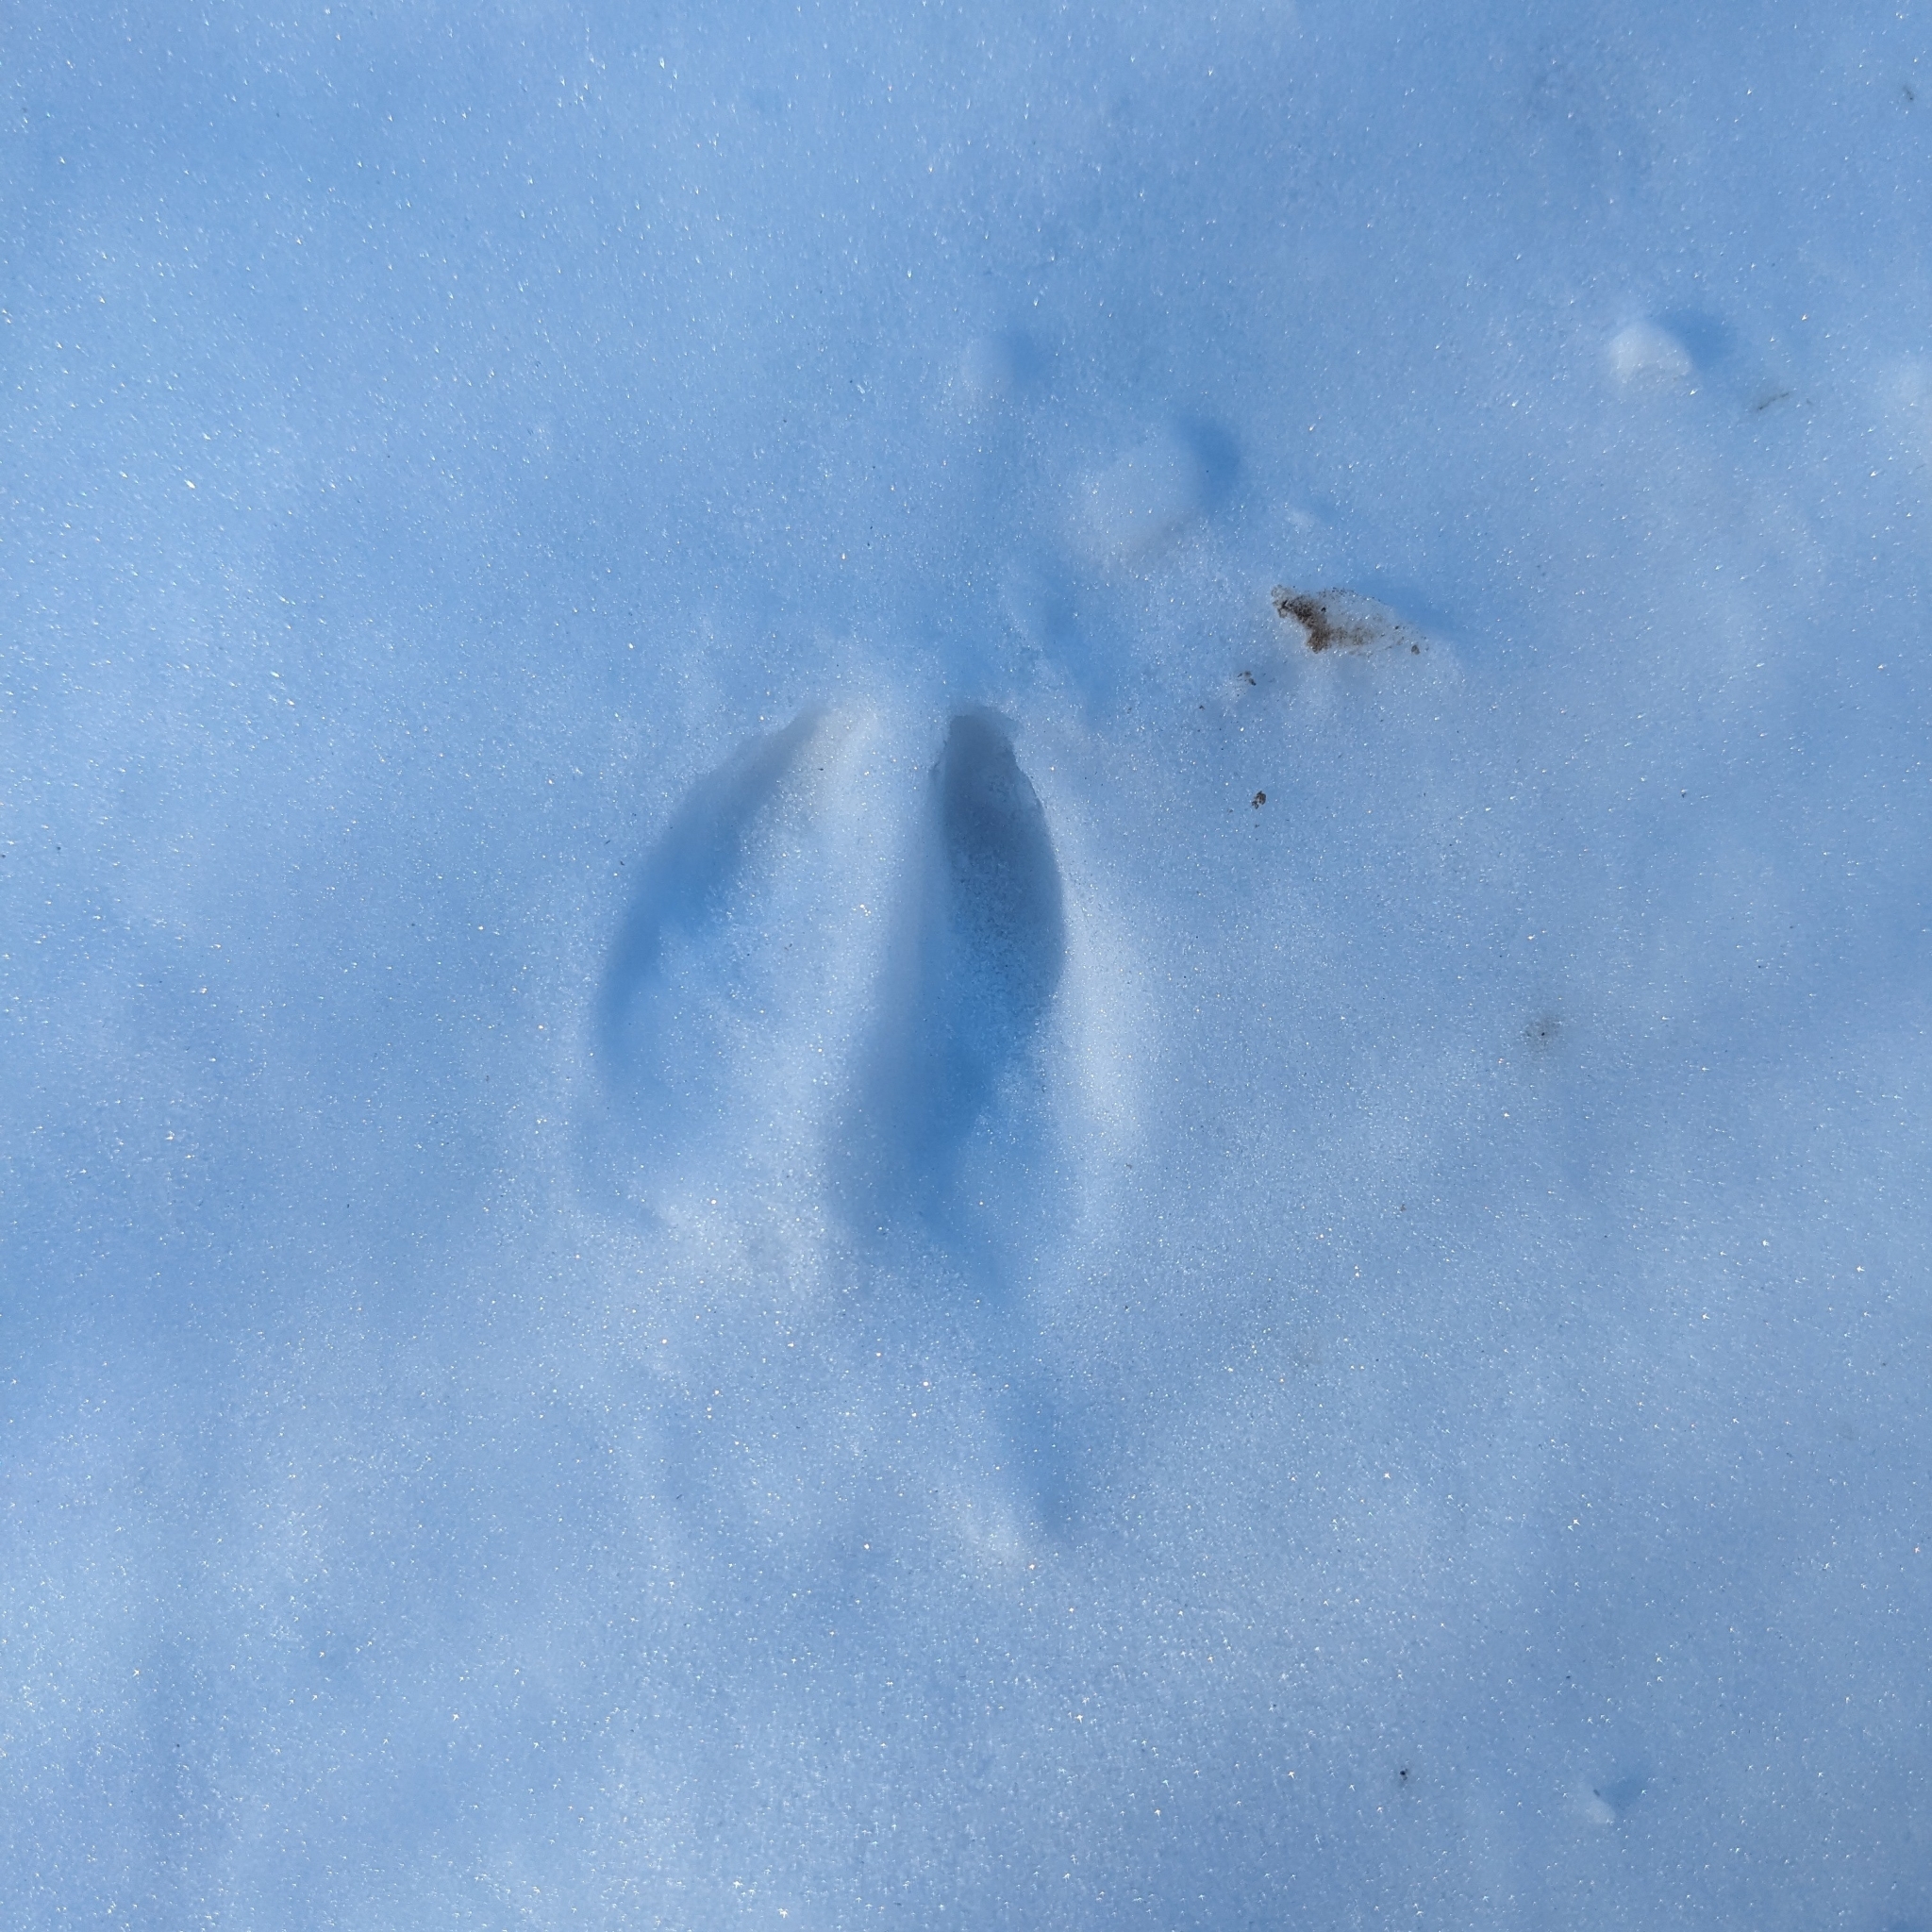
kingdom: Animalia
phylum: Chordata
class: Mammalia
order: Artiodactyla
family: Cervidae
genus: Odocoileus
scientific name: Odocoileus virginianus
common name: White-tailed deer
